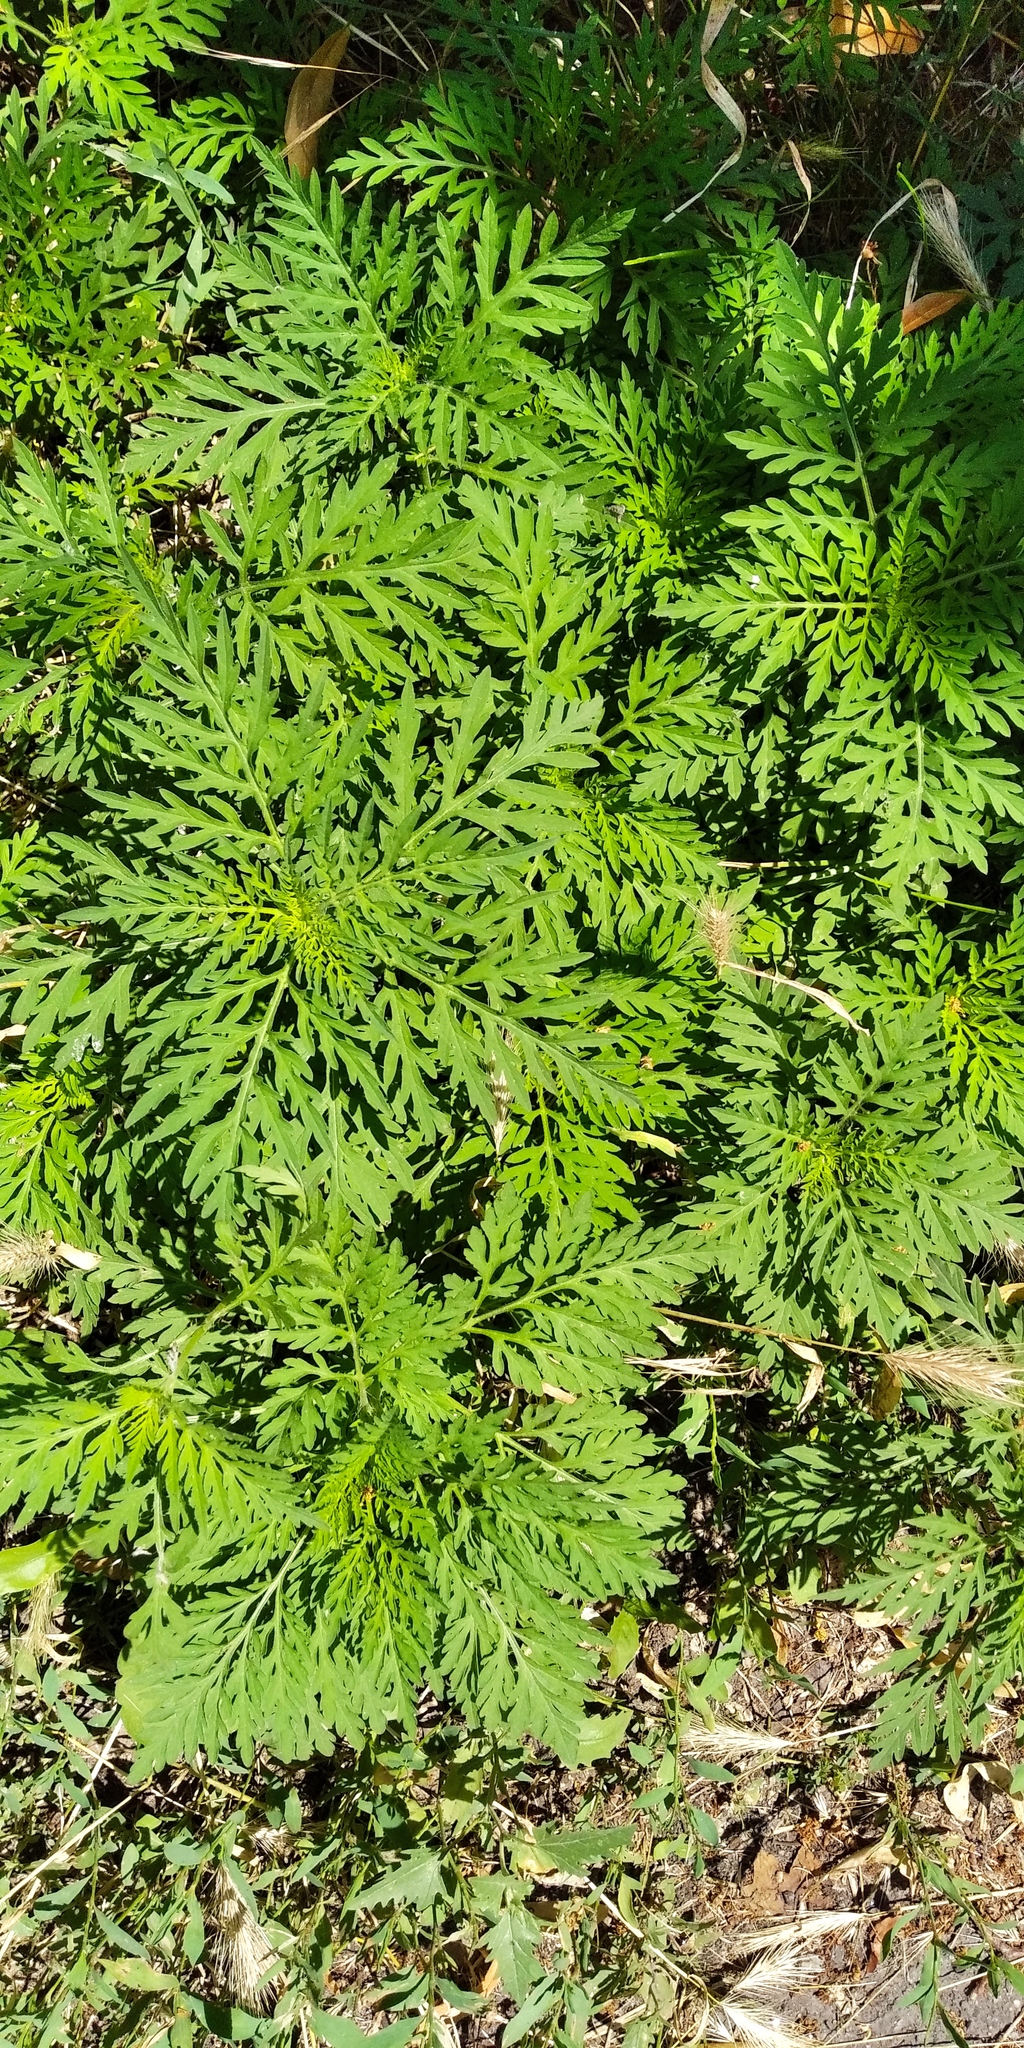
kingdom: Plantae
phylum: Tracheophyta
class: Magnoliopsida
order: Asterales
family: Asteraceae
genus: Ambrosia
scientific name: Ambrosia artemisiifolia
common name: Annual ragweed
